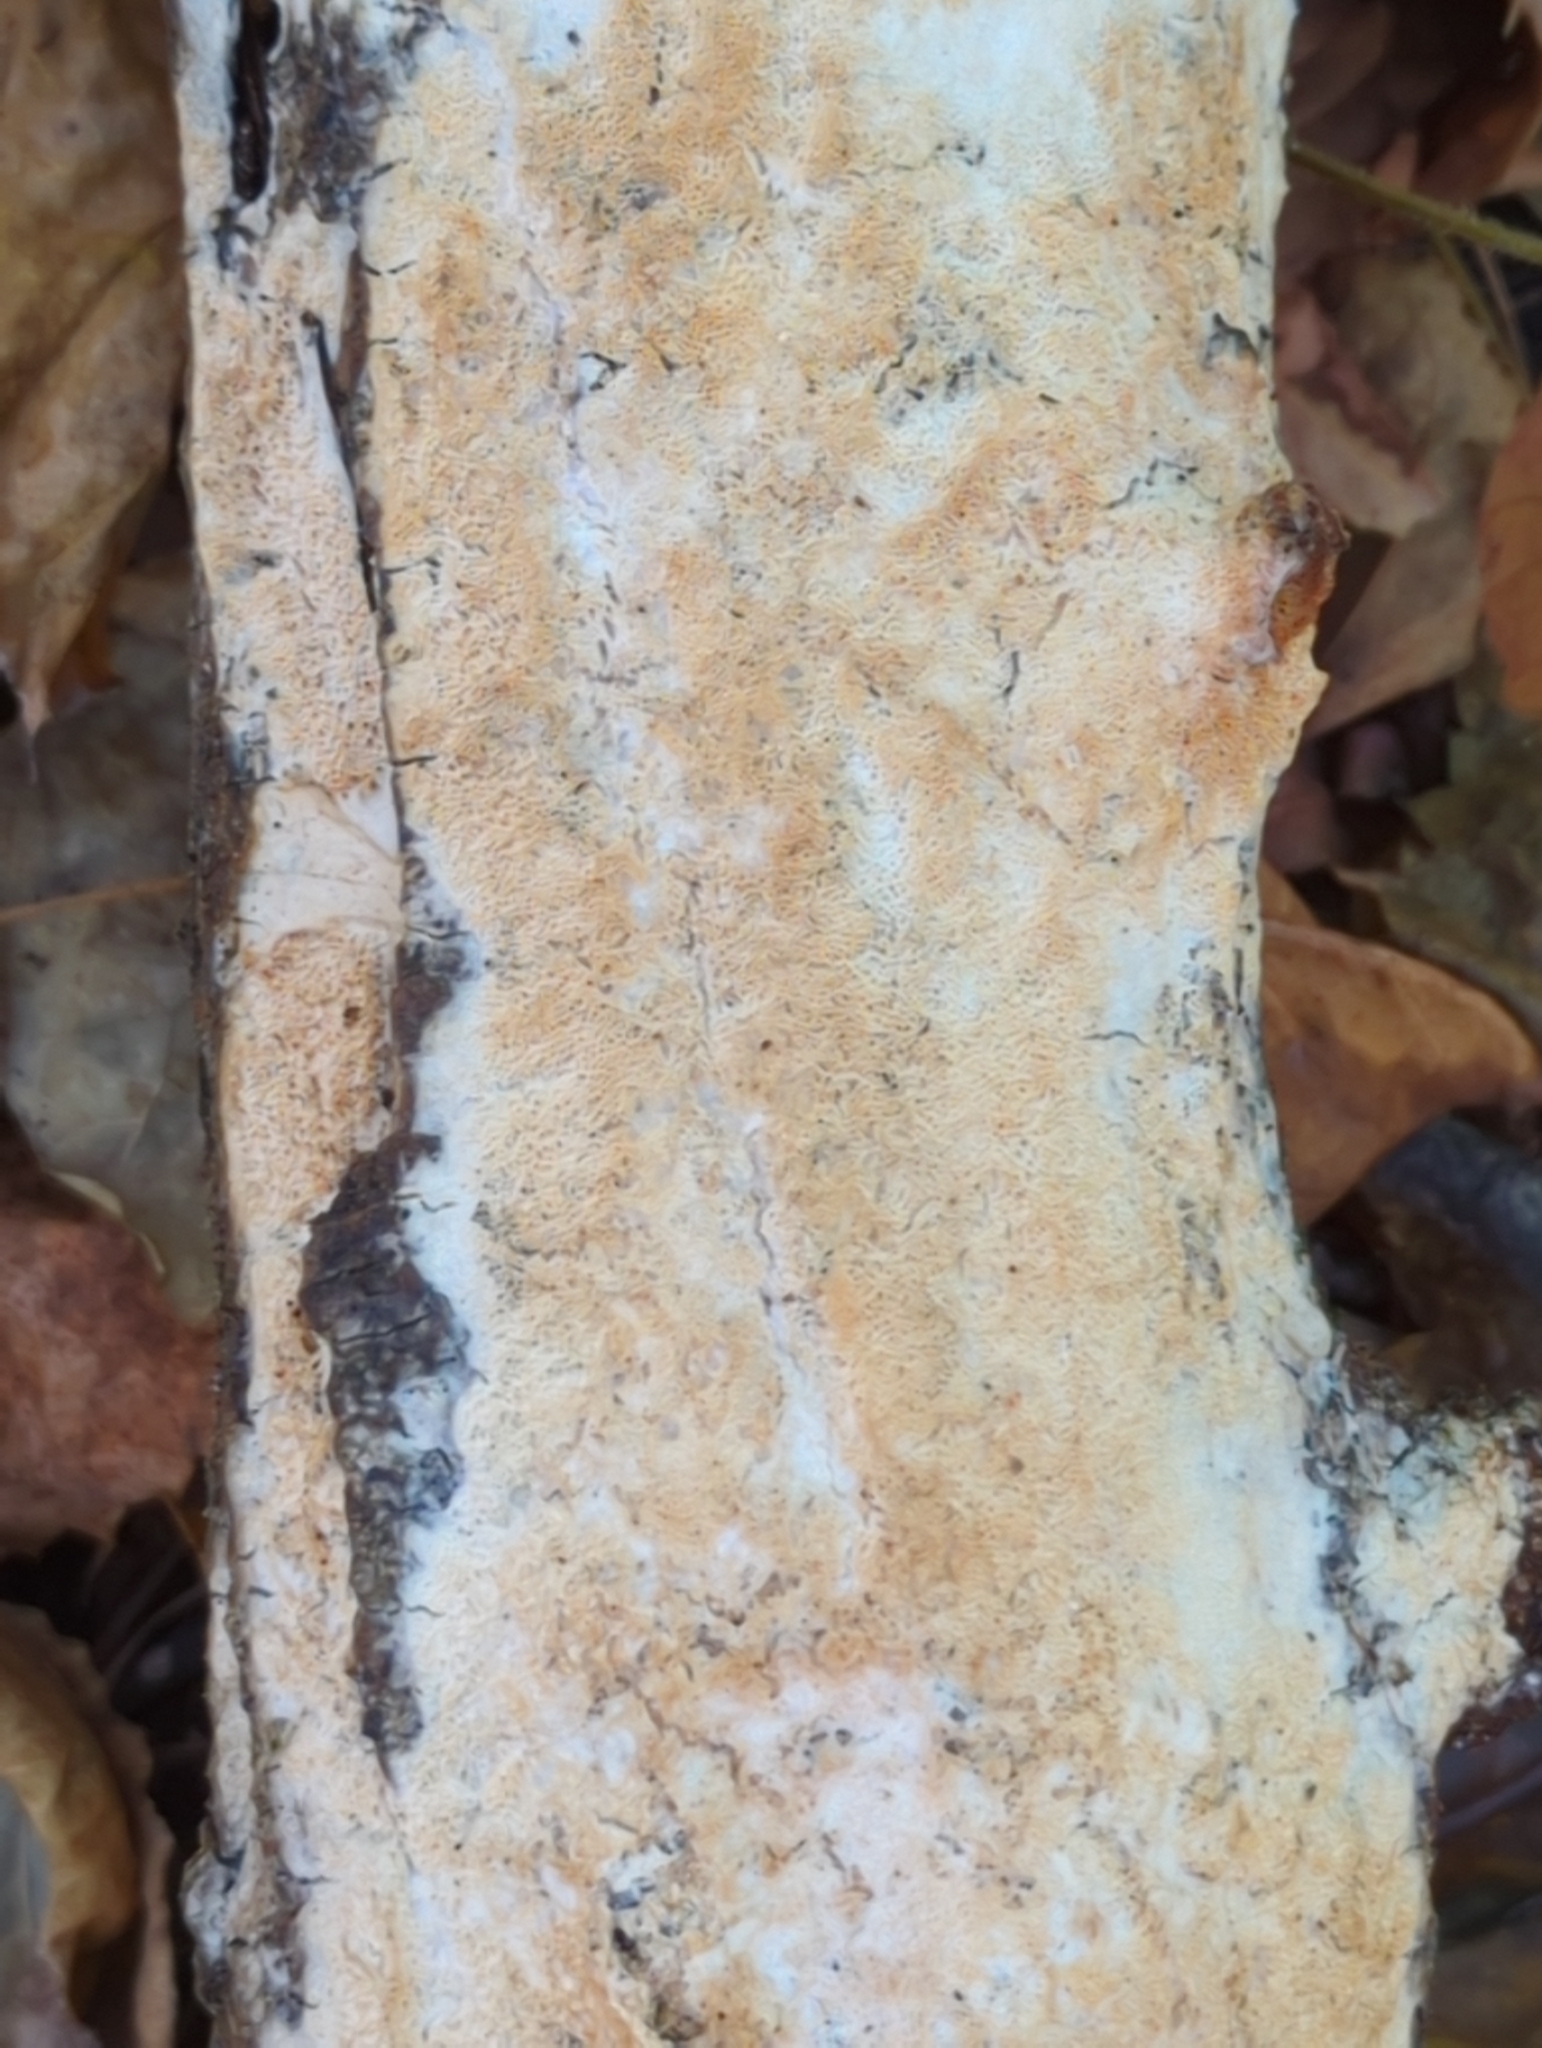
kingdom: Fungi
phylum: Basidiomycota
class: Agaricomycetes
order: Hymenochaetales
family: Oxyporaceae
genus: Oxyporus
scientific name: Oxyporus corticola
